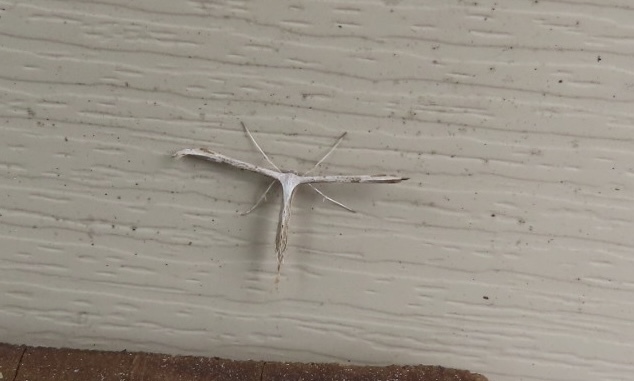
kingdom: Animalia
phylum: Arthropoda
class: Insecta
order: Lepidoptera
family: Pterophoridae
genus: Emmelina
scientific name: Emmelina monodactyla
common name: Common plume
